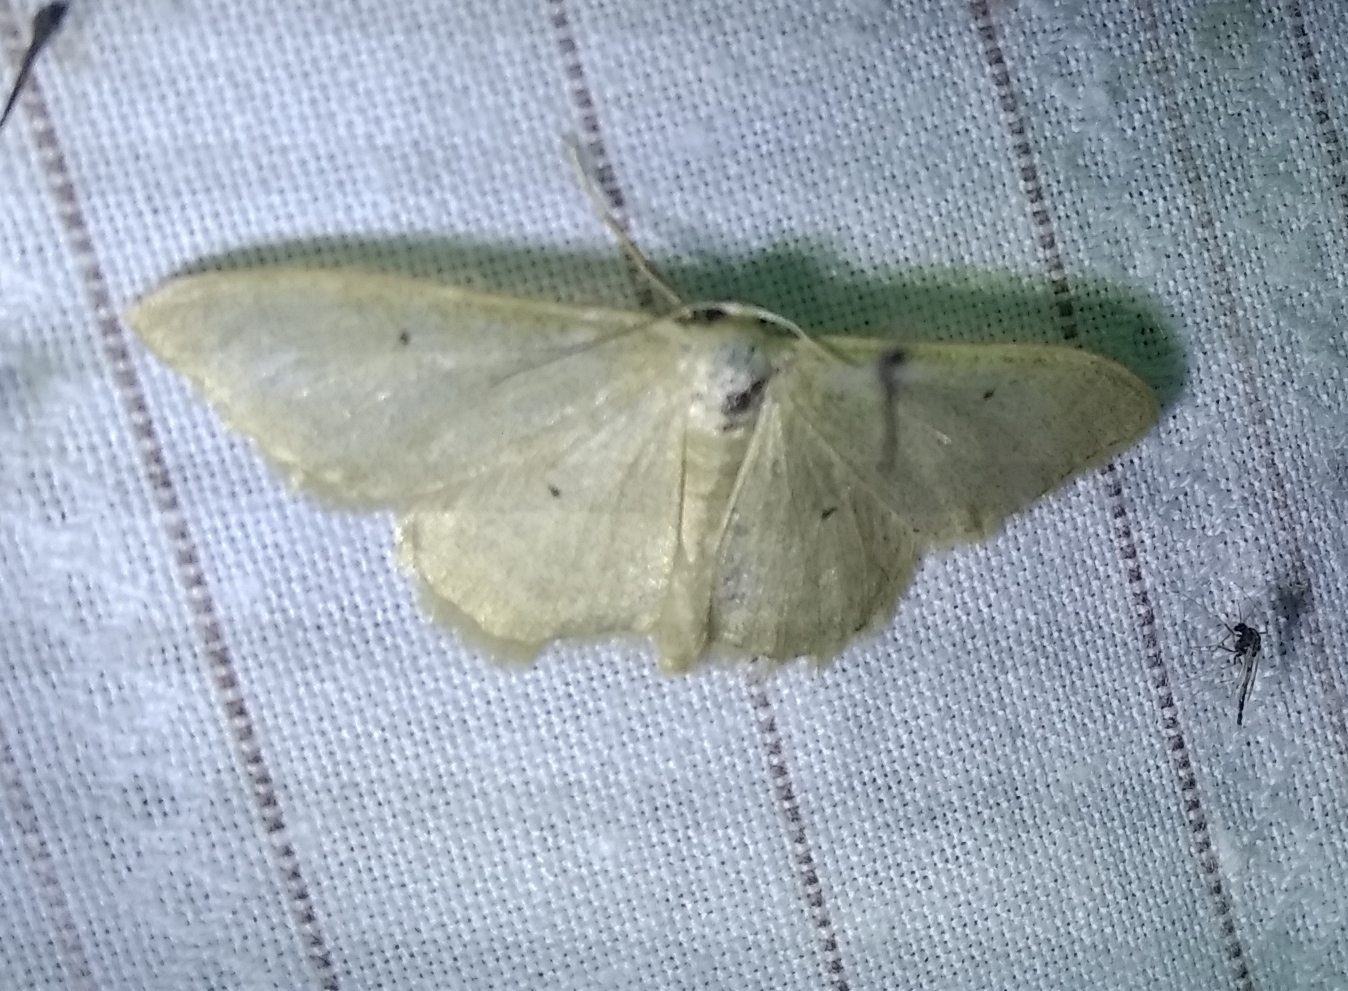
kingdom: Animalia
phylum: Arthropoda
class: Insecta
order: Lepidoptera
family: Geometridae
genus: Idaea
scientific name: Idaea straminata
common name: Plain wave
